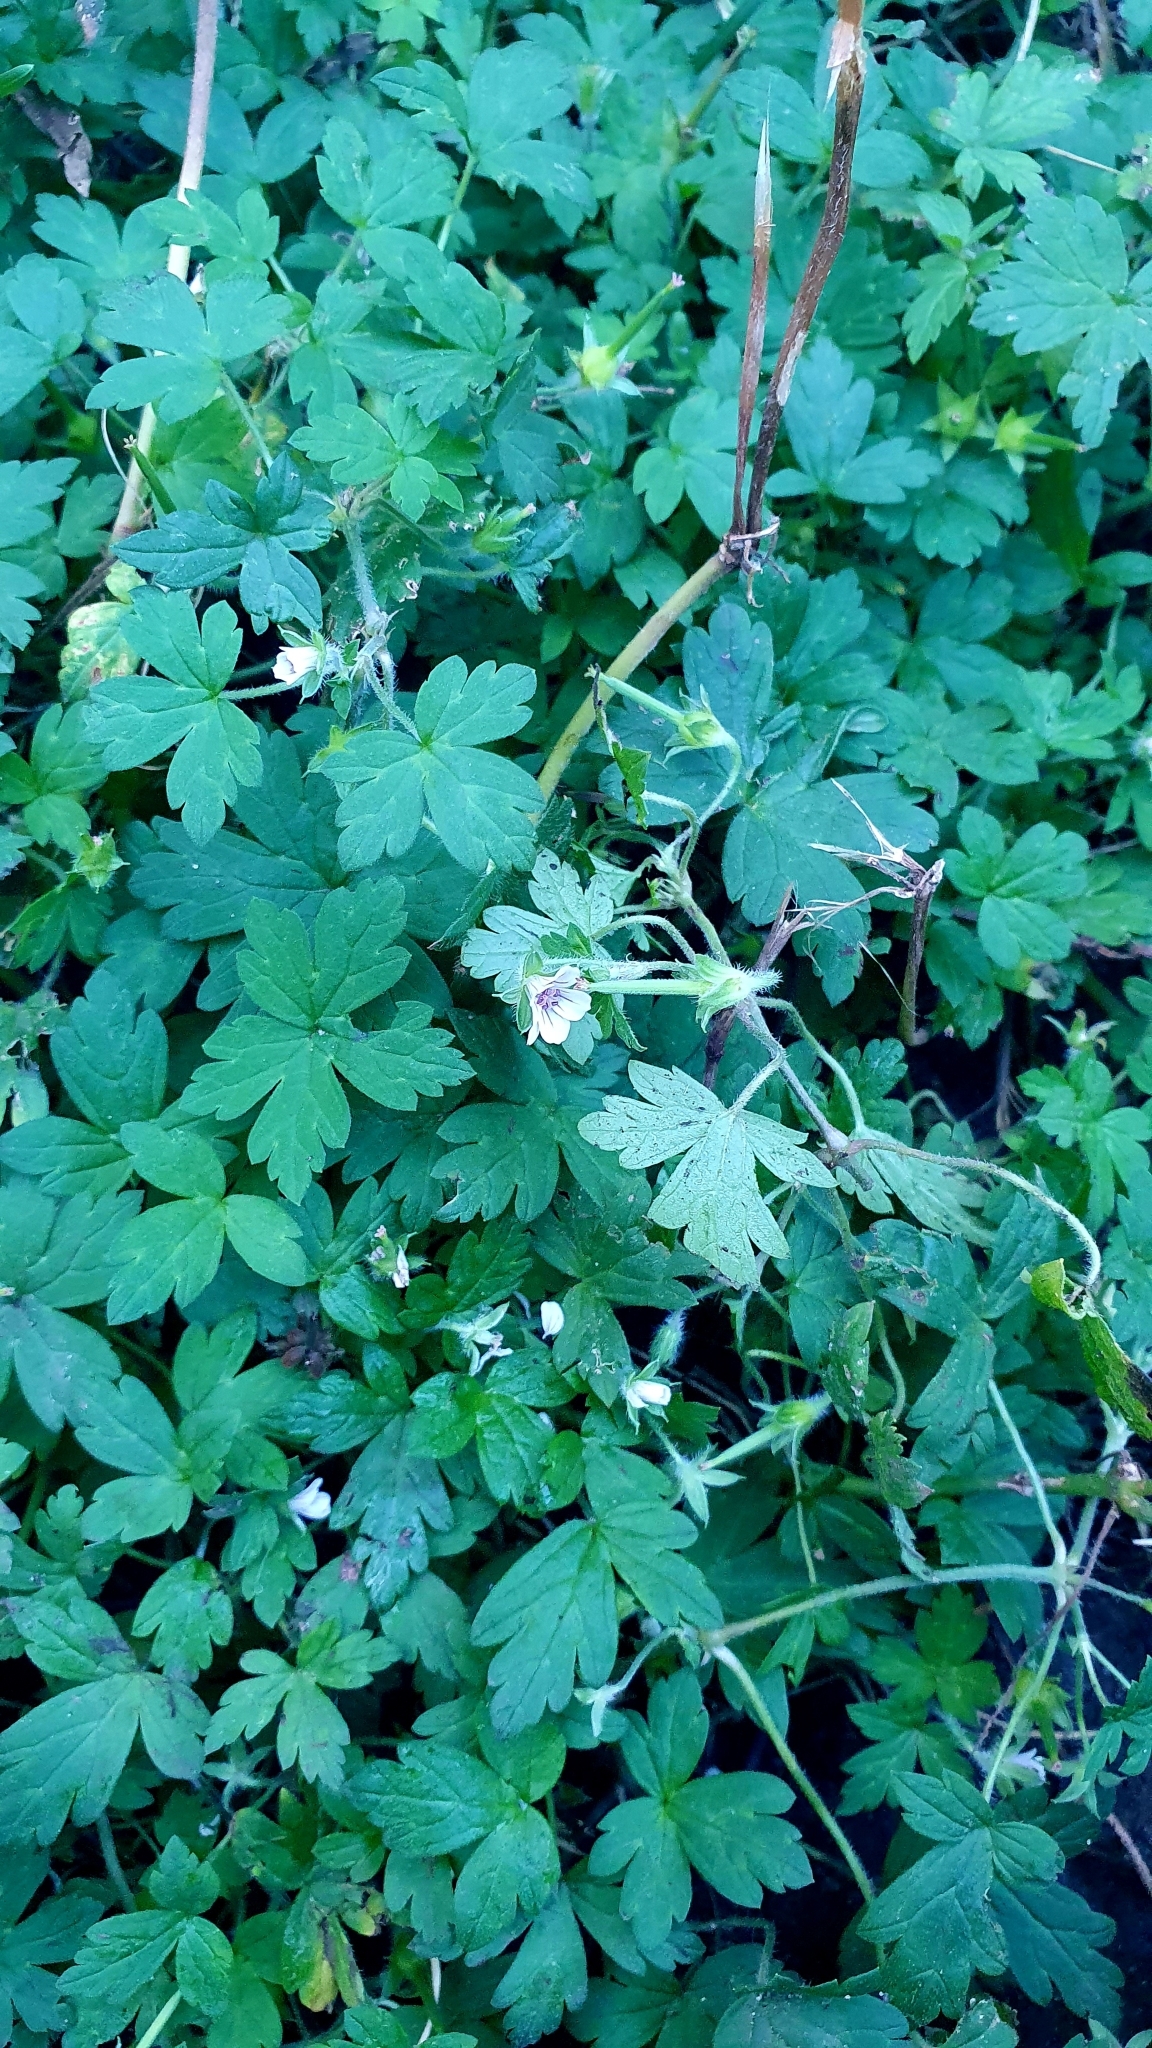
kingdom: Plantae
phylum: Tracheophyta
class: Magnoliopsida
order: Geraniales
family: Geraniaceae
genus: Geranium
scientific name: Geranium sibiricum
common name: Siberian crane's-bill
